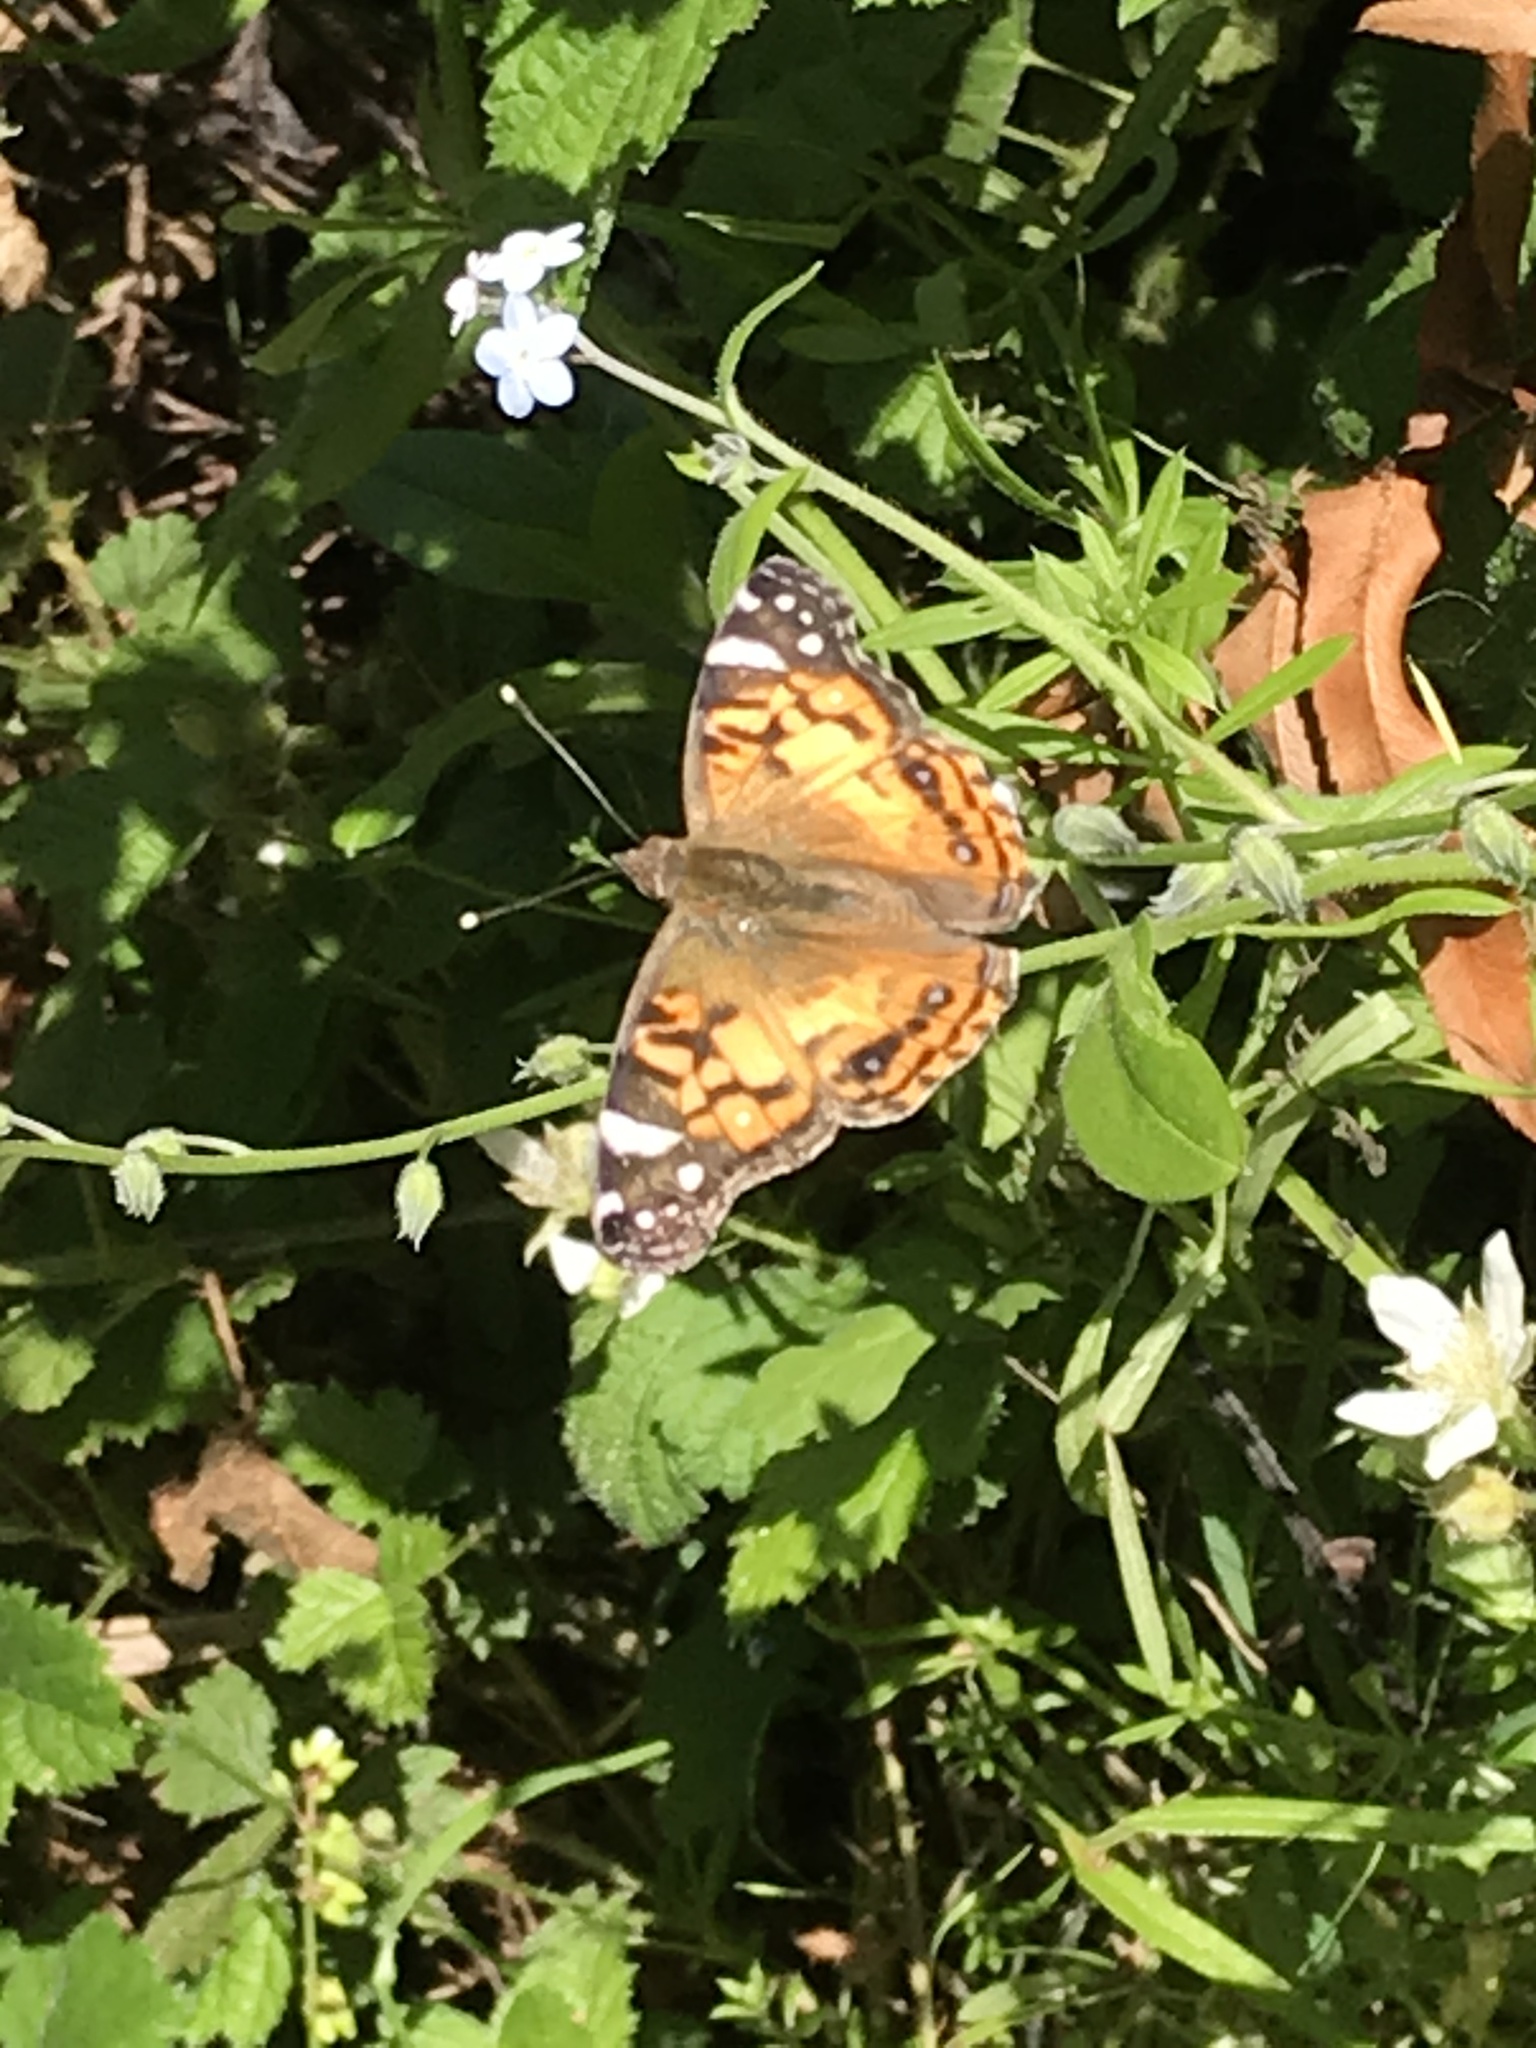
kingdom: Animalia
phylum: Arthropoda
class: Insecta
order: Lepidoptera
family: Nymphalidae
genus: Vanessa
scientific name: Vanessa virginiensis
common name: American lady
